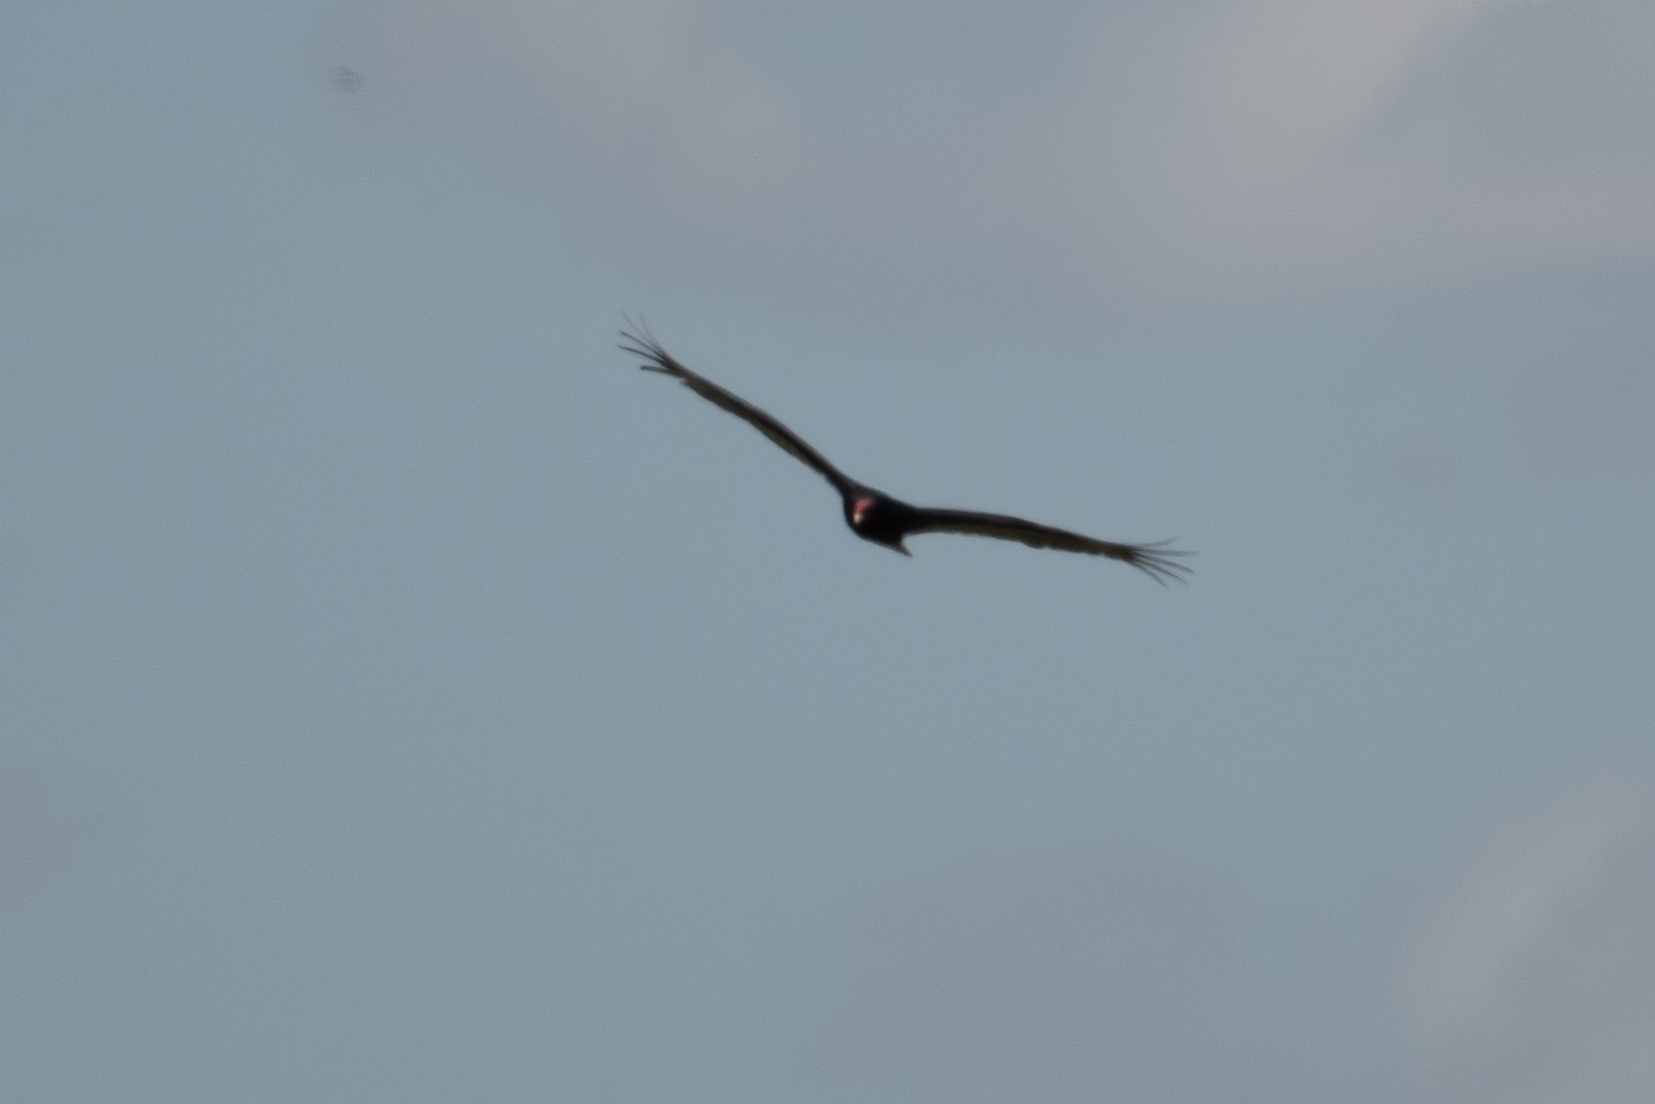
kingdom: Animalia
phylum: Chordata
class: Aves
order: Accipitriformes
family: Cathartidae
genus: Cathartes
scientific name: Cathartes aura
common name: Turkey vulture
